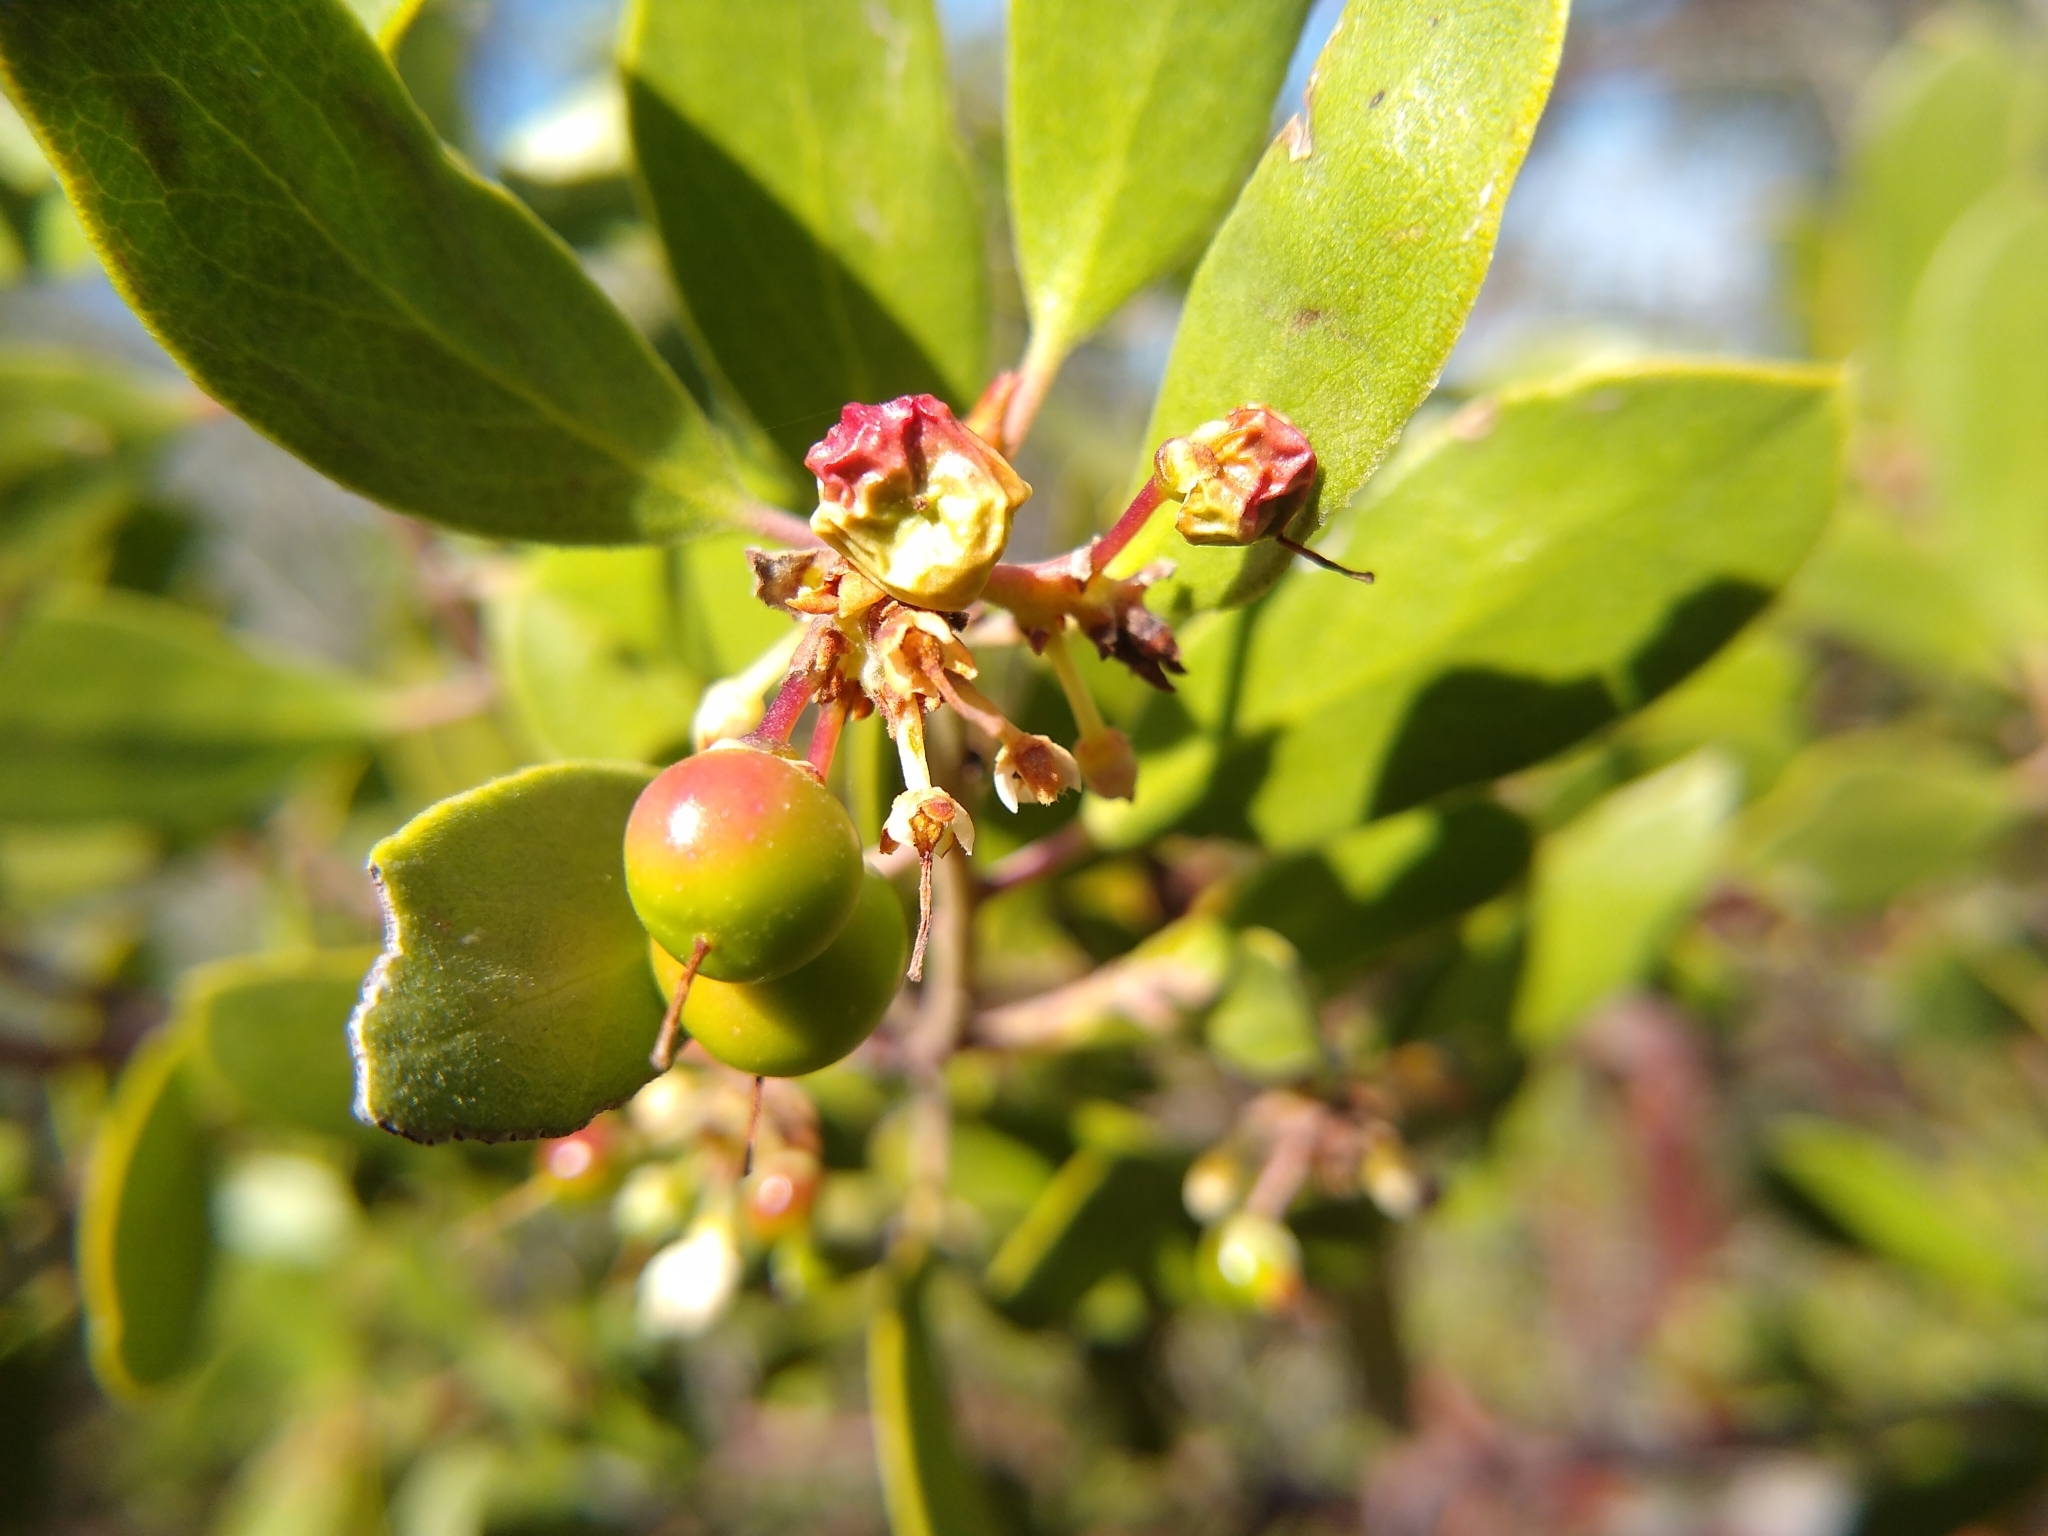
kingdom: Plantae
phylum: Tracheophyta
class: Magnoliopsida
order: Ericales
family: Ericaceae
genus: Arctostaphylos
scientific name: Arctostaphylos pungens
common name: Mexican manzanita
